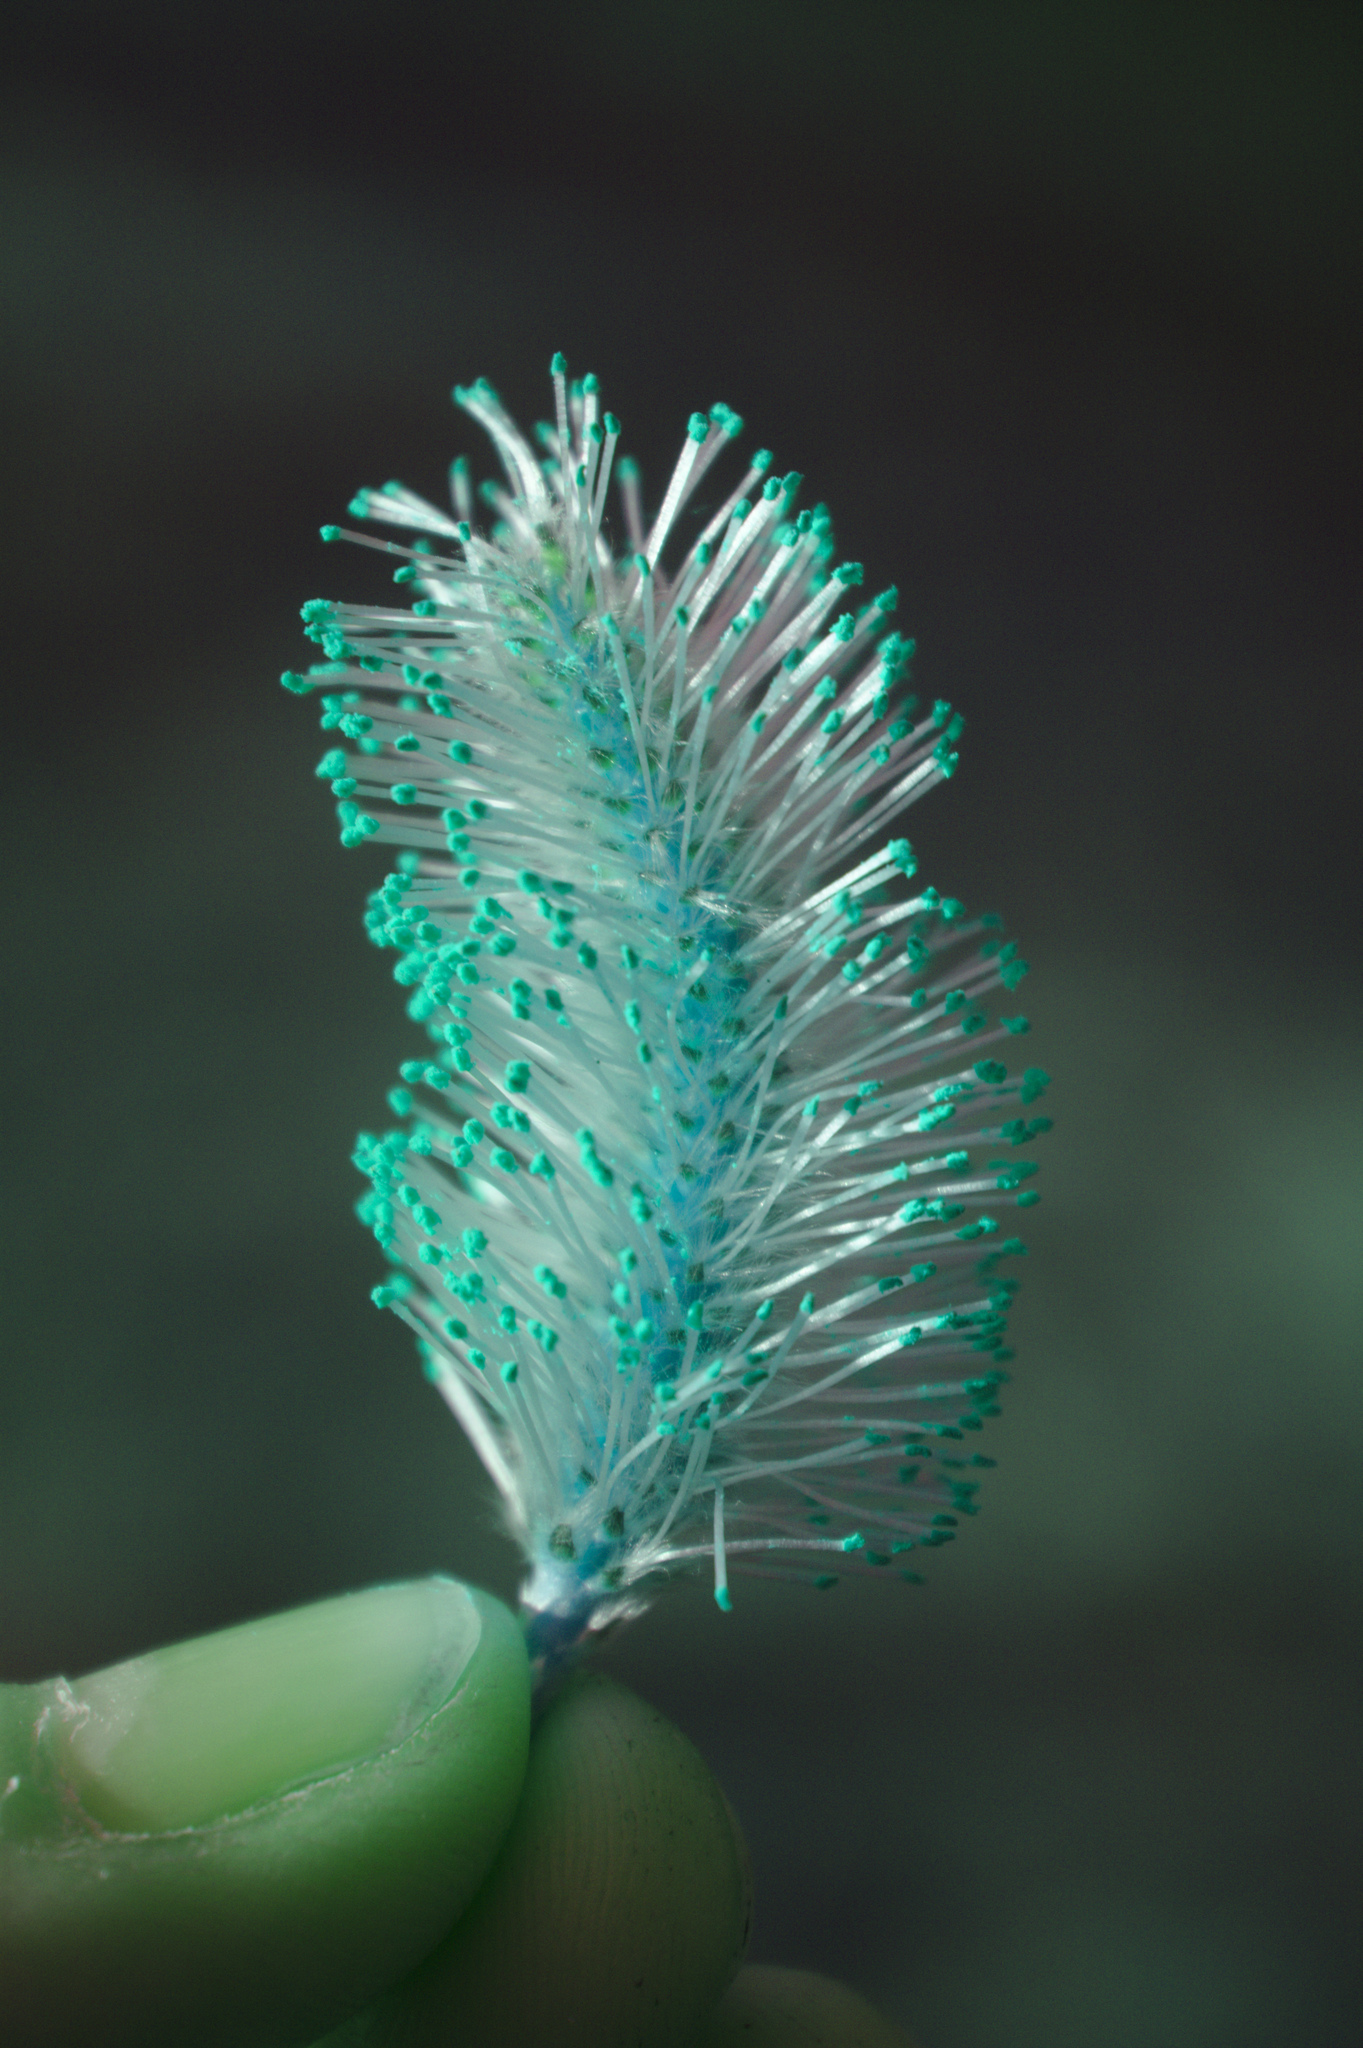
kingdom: Plantae
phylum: Tracheophyta
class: Magnoliopsida
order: Malpighiales
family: Salicaceae
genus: Salix
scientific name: Salix discolor
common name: Glaucous willow
